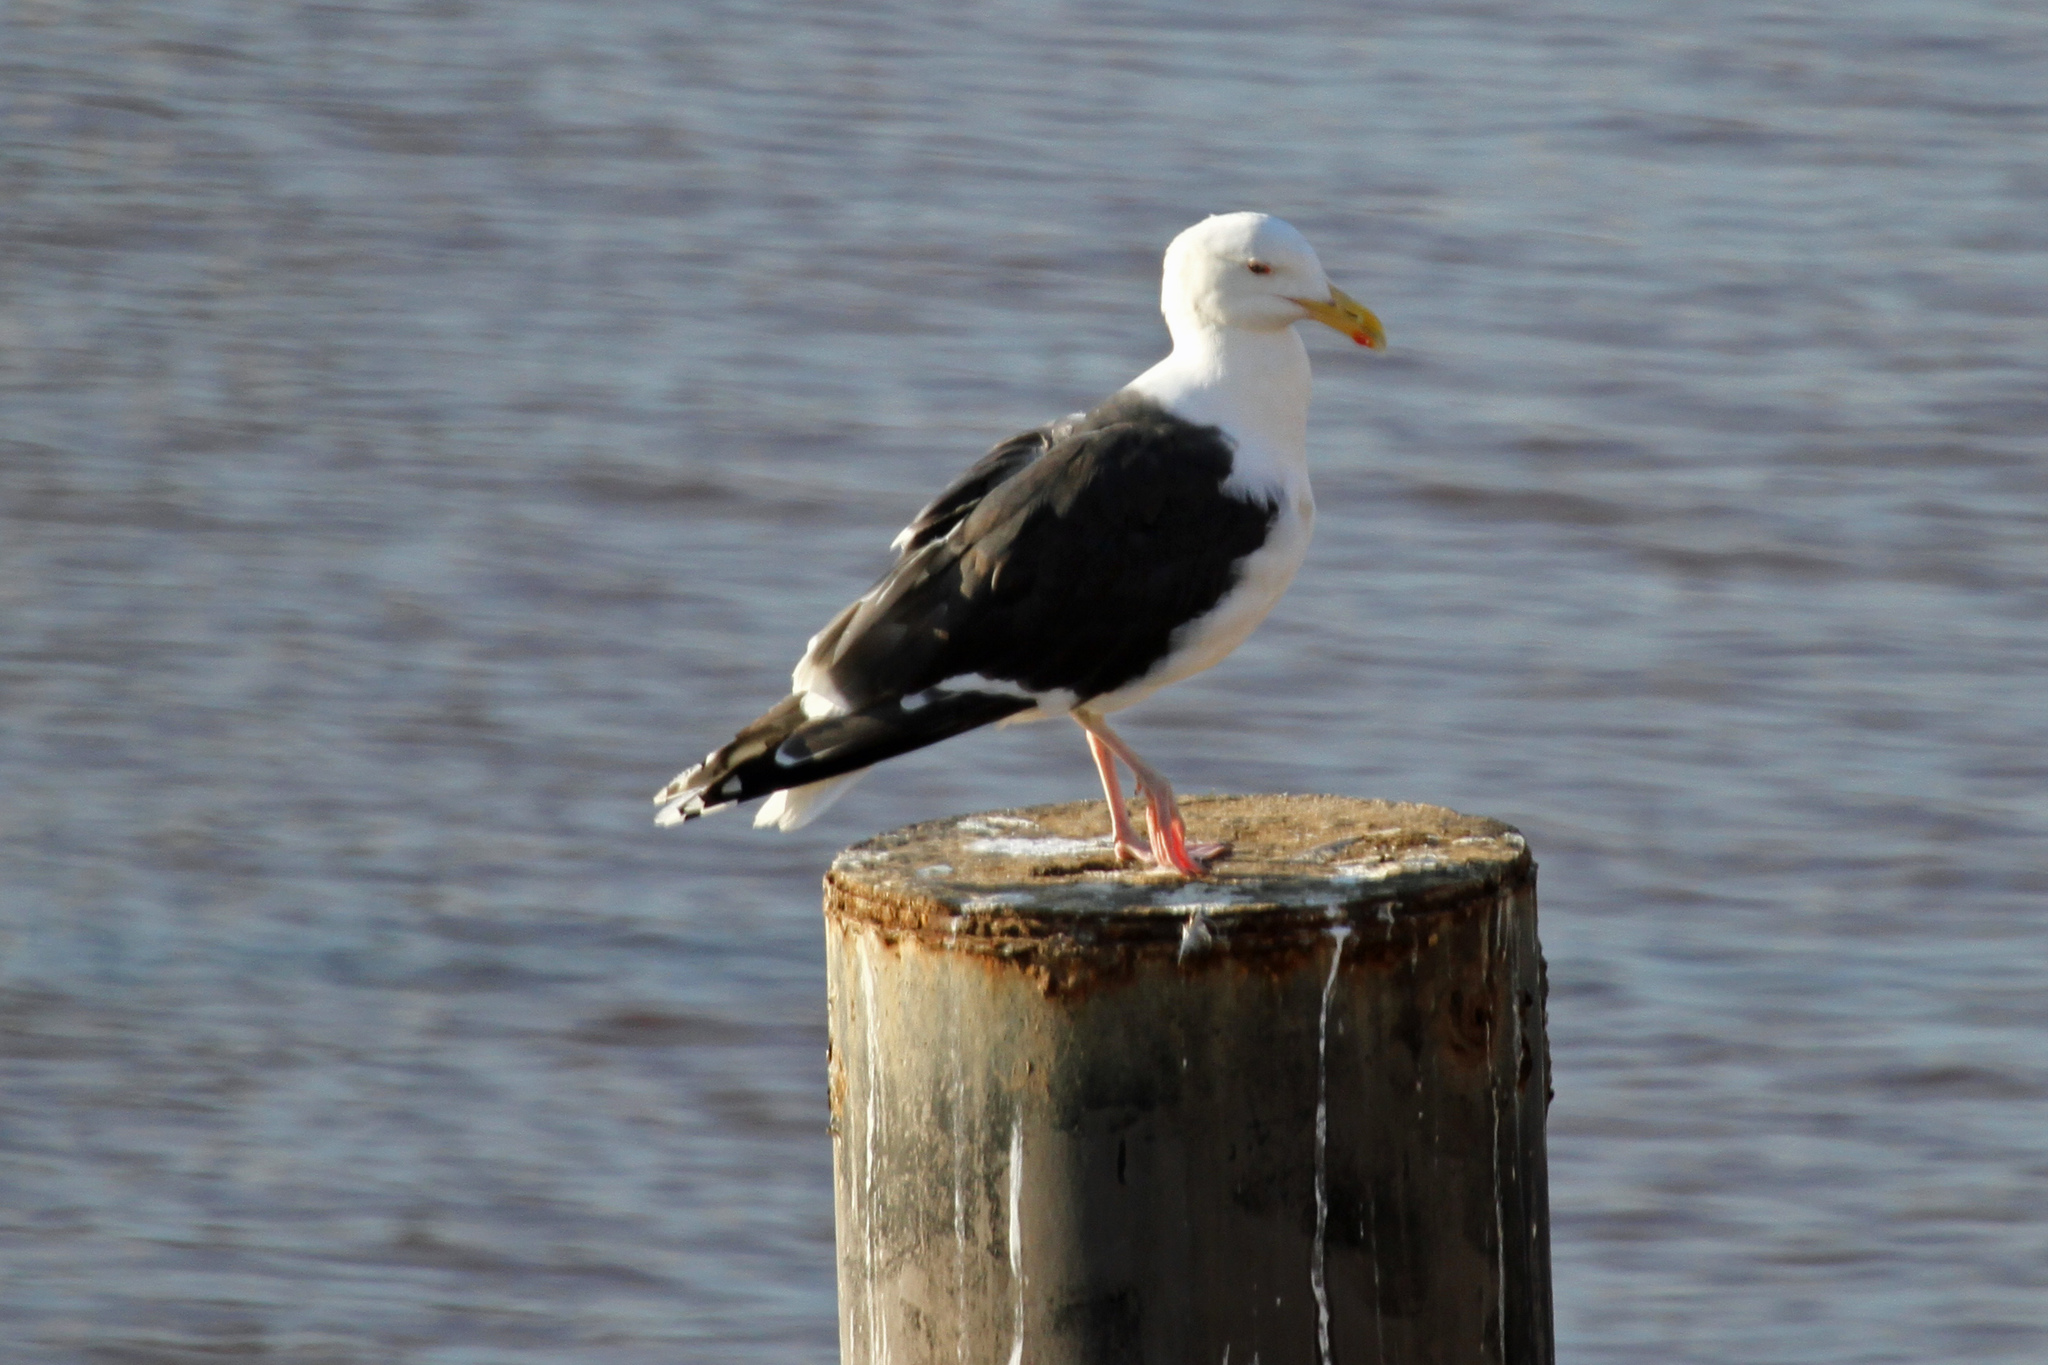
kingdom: Animalia
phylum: Chordata
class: Aves
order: Charadriiformes
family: Laridae
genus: Larus
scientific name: Larus marinus
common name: Great black-backed gull
